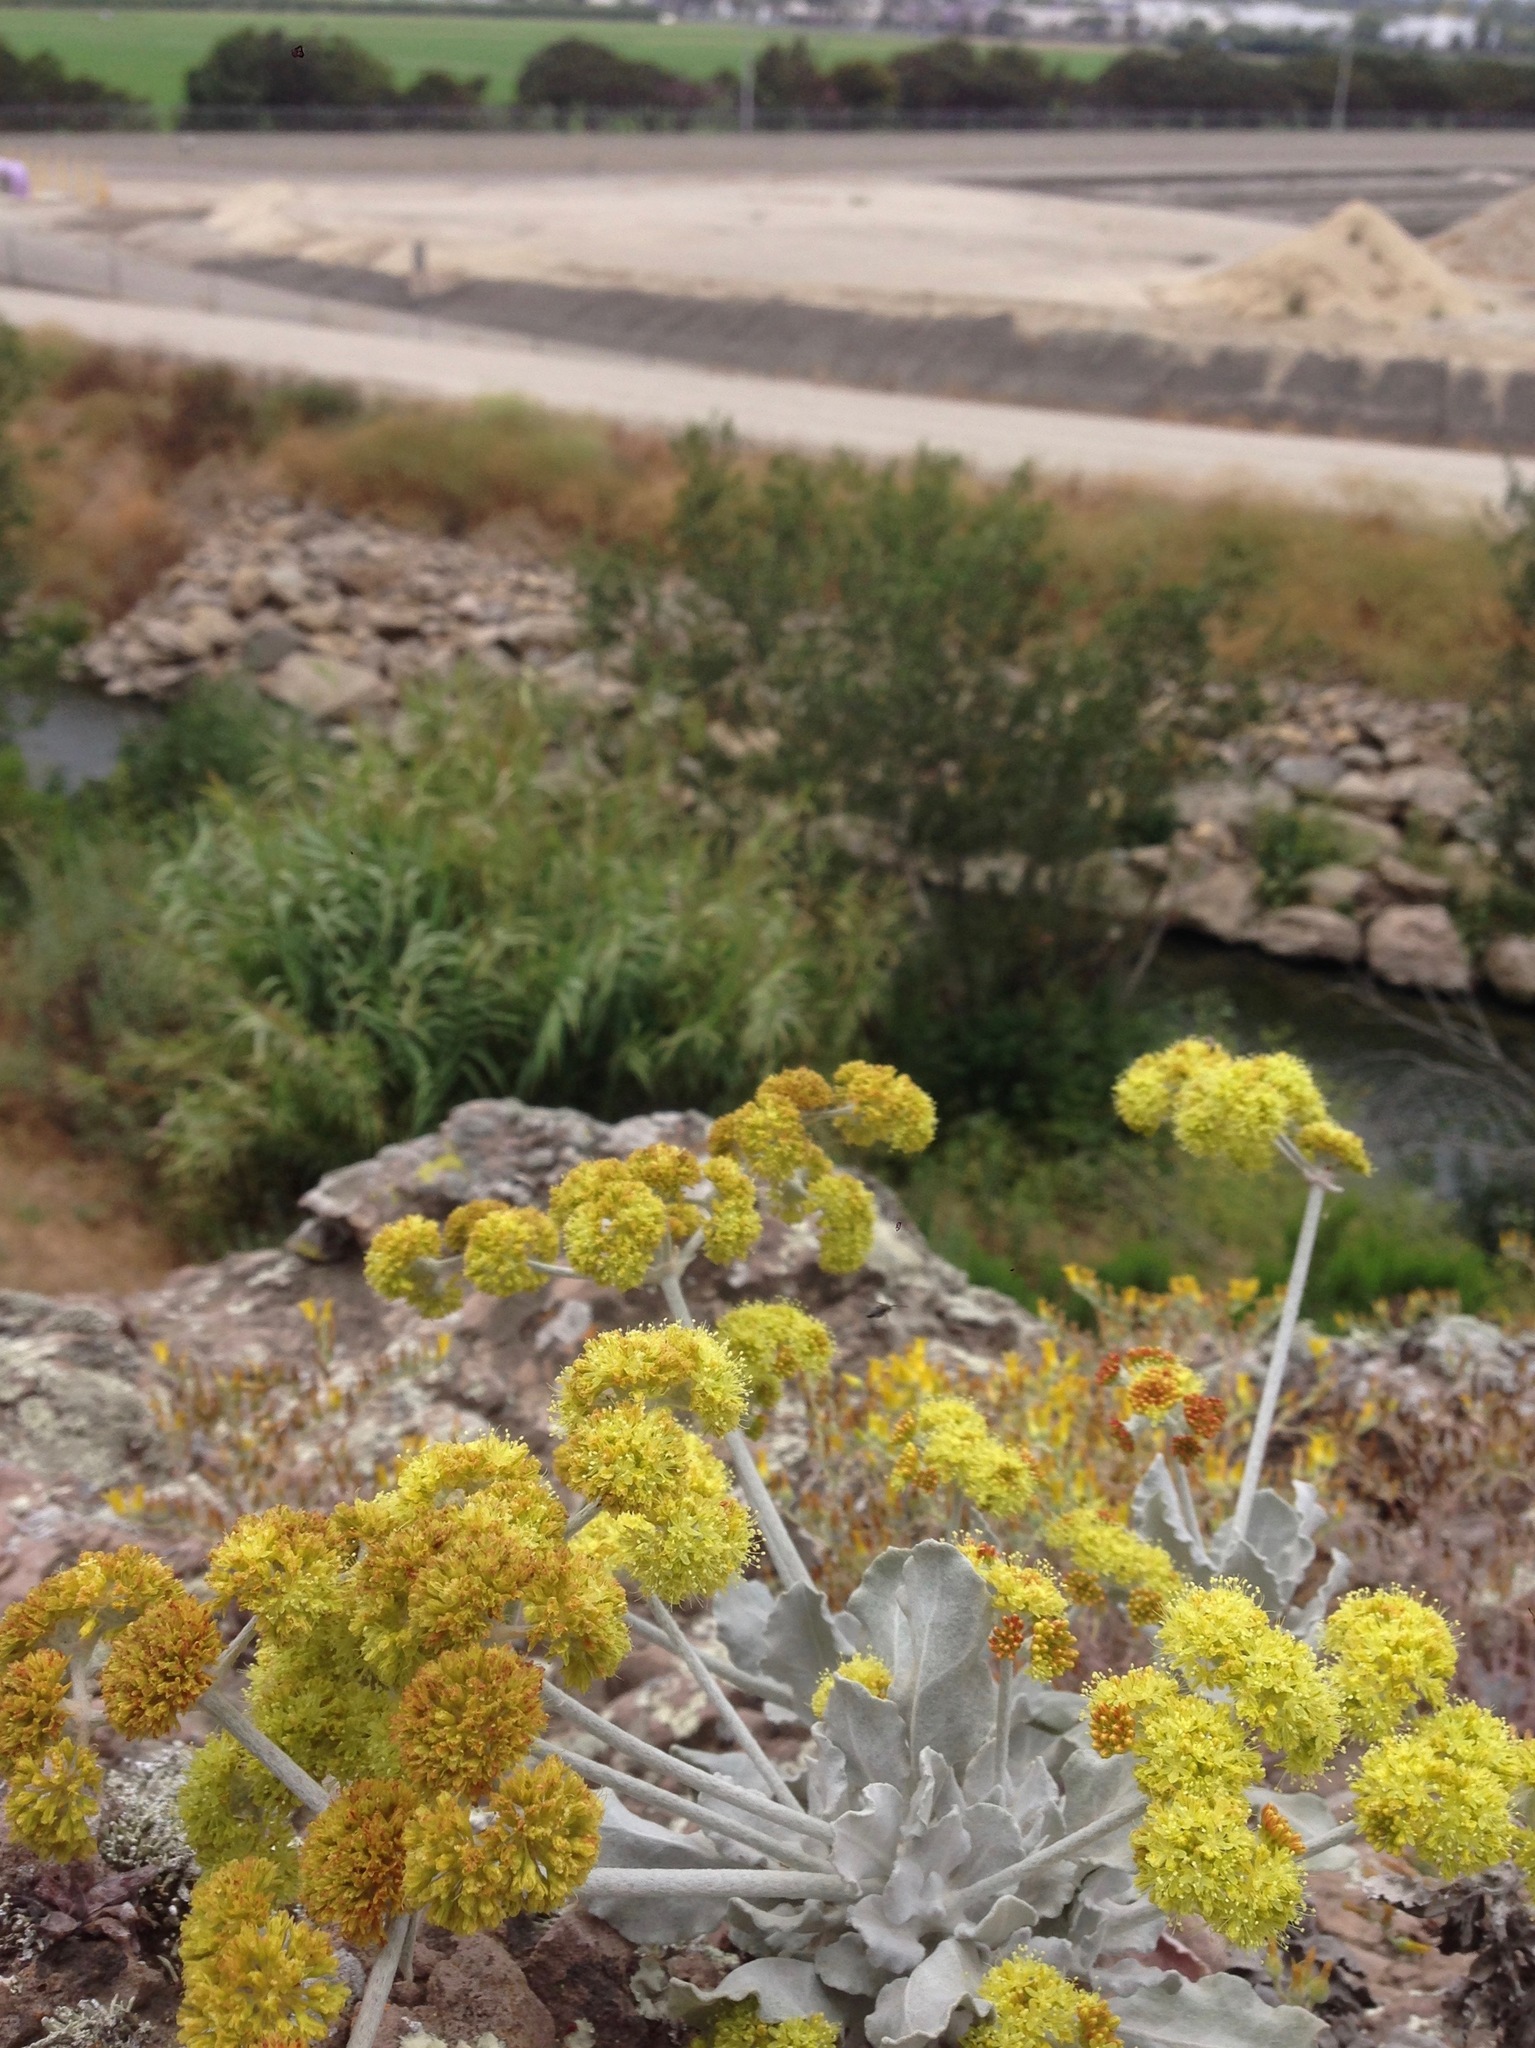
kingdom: Plantae
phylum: Tracheophyta
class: Magnoliopsida
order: Caryophyllales
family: Polygonaceae
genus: Eriogonum
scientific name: Eriogonum crocatum
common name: Saffron wild buckwheat
